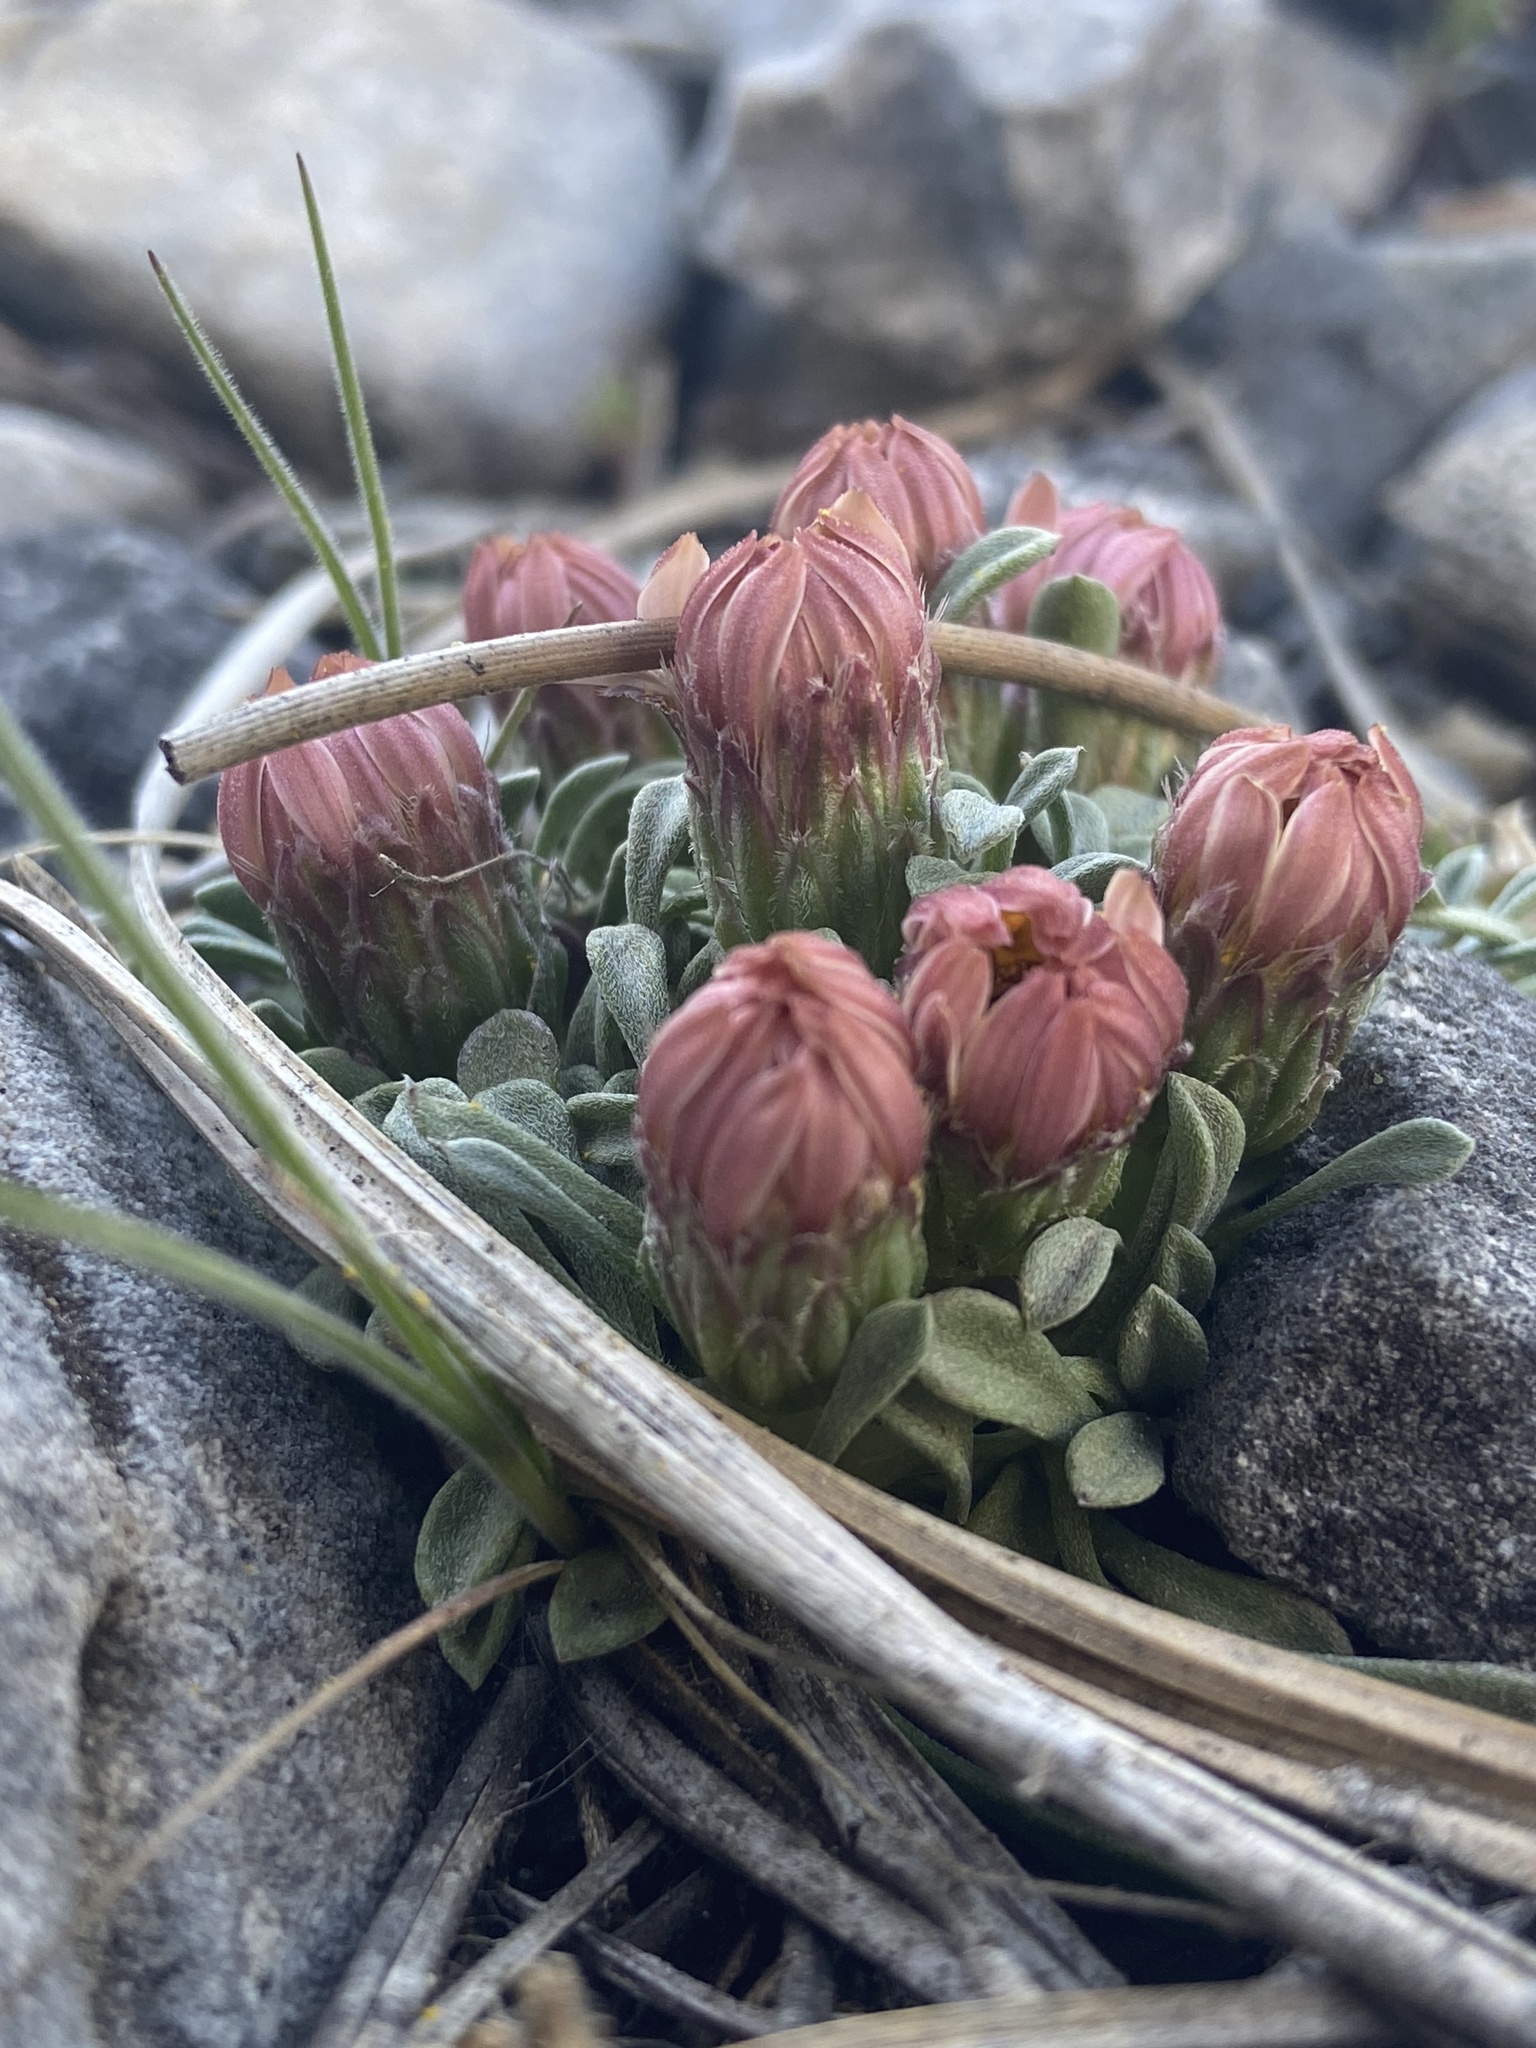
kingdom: Plantae
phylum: Tracheophyta
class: Magnoliopsida
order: Asterales
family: Asteraceae
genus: Townsendia
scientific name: Townsendia jonesii
